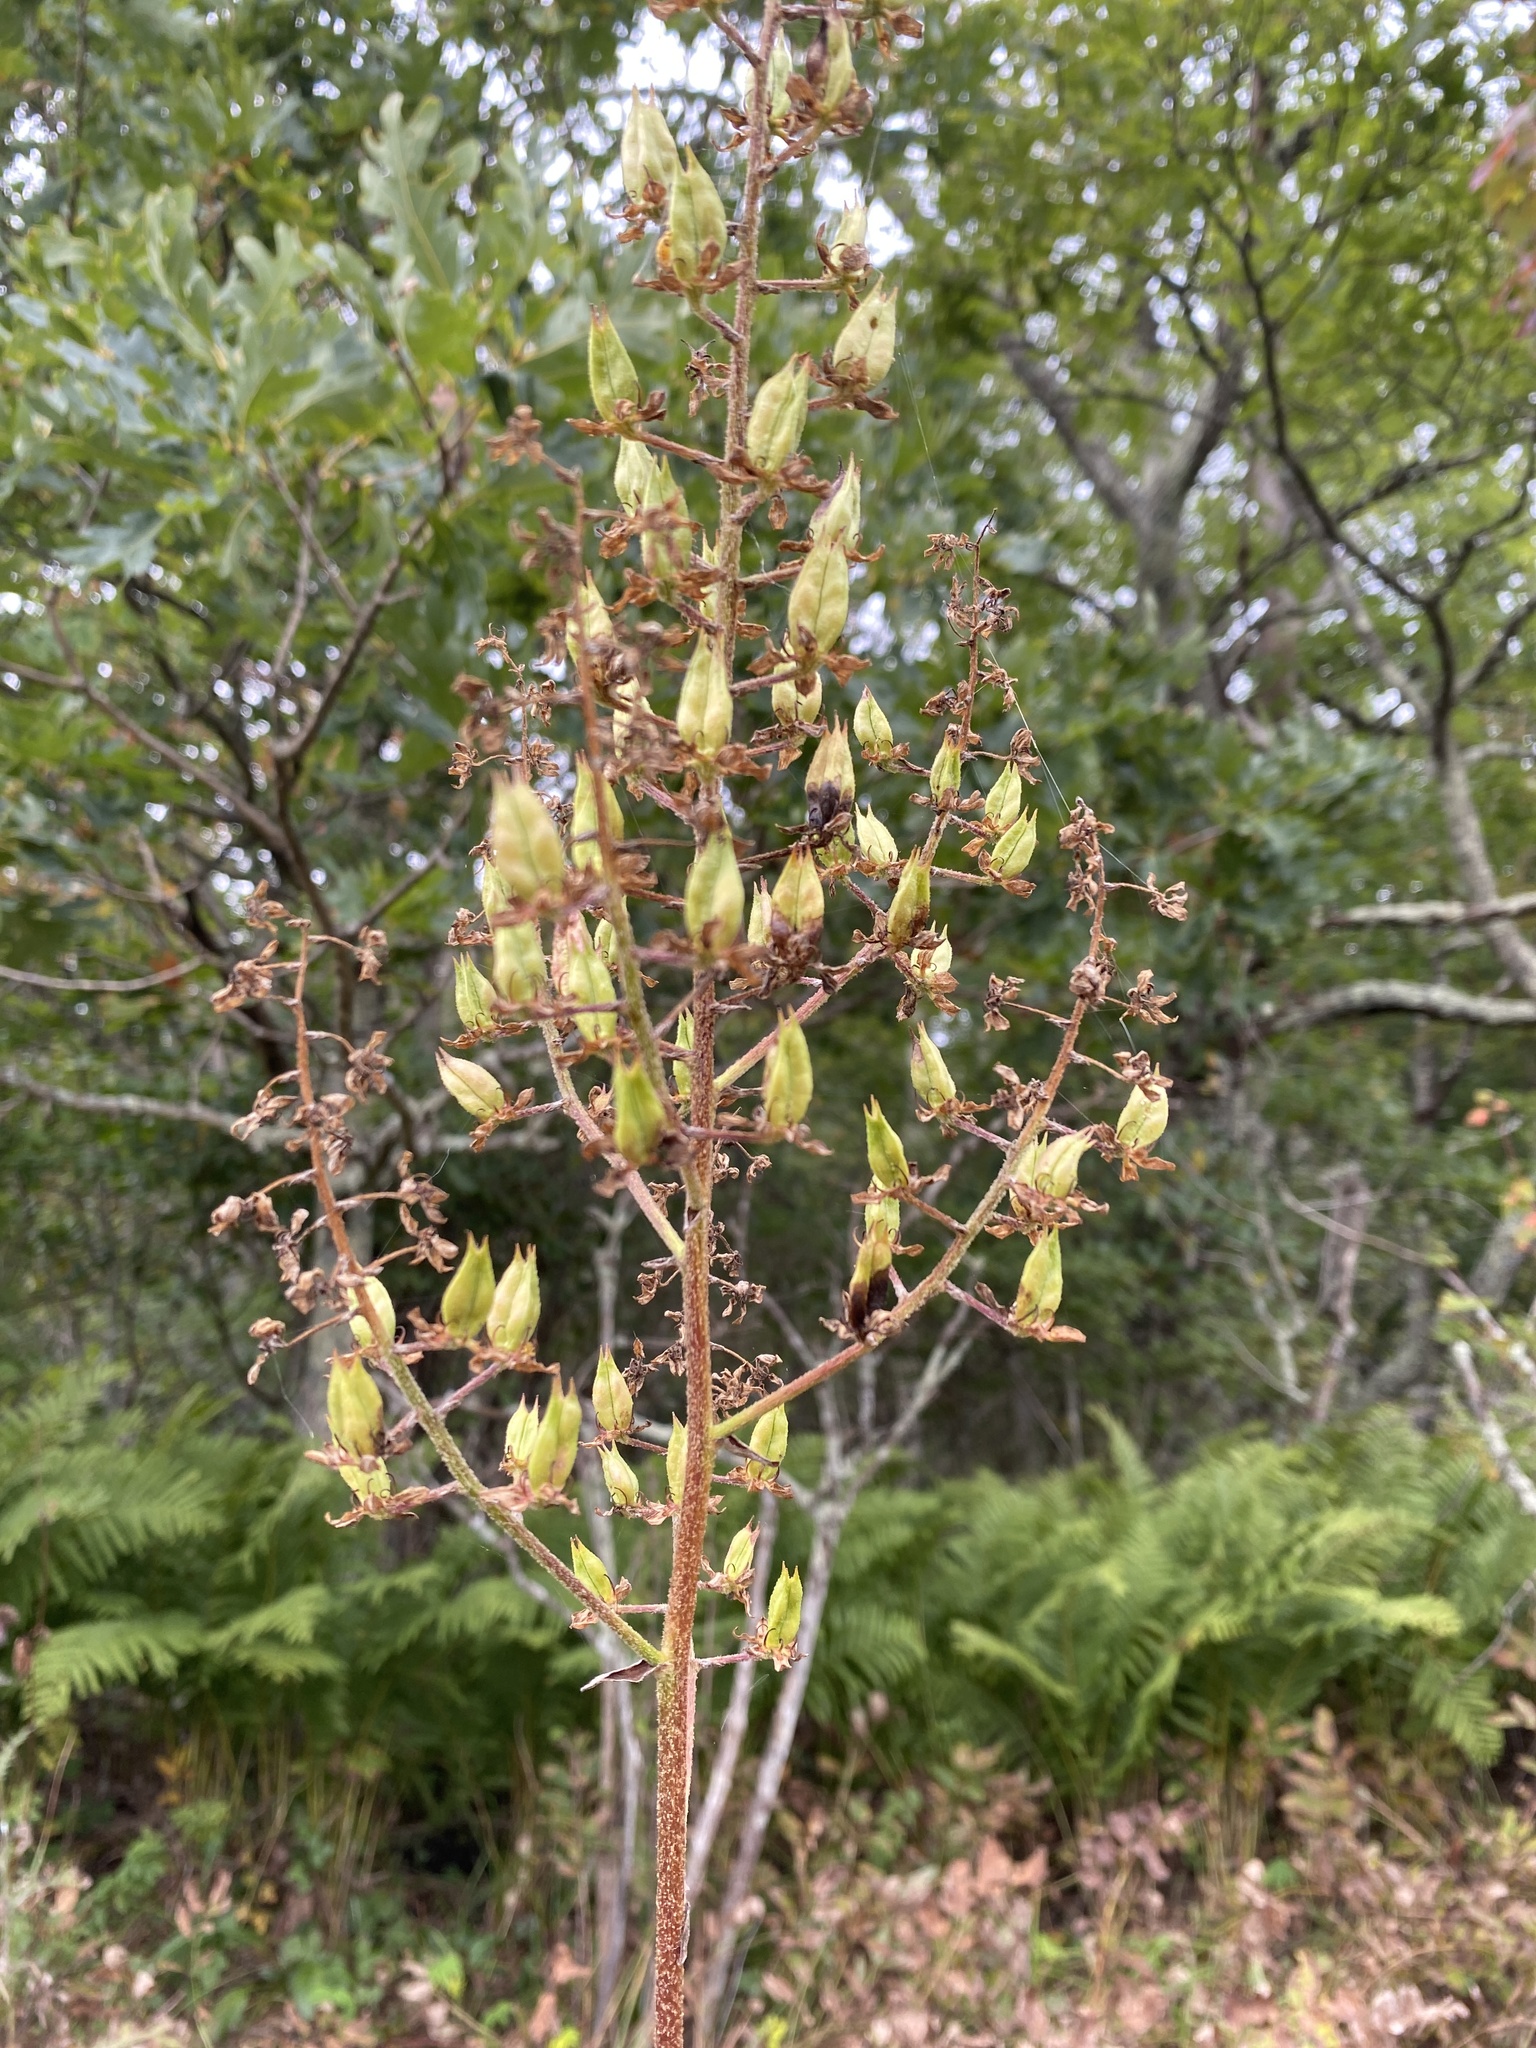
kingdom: Plantae
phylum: Tracheophyta
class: Liliopsida
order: Liliales
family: Melanthiaceae
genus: Melanthium
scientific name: Melanthium virginicum
